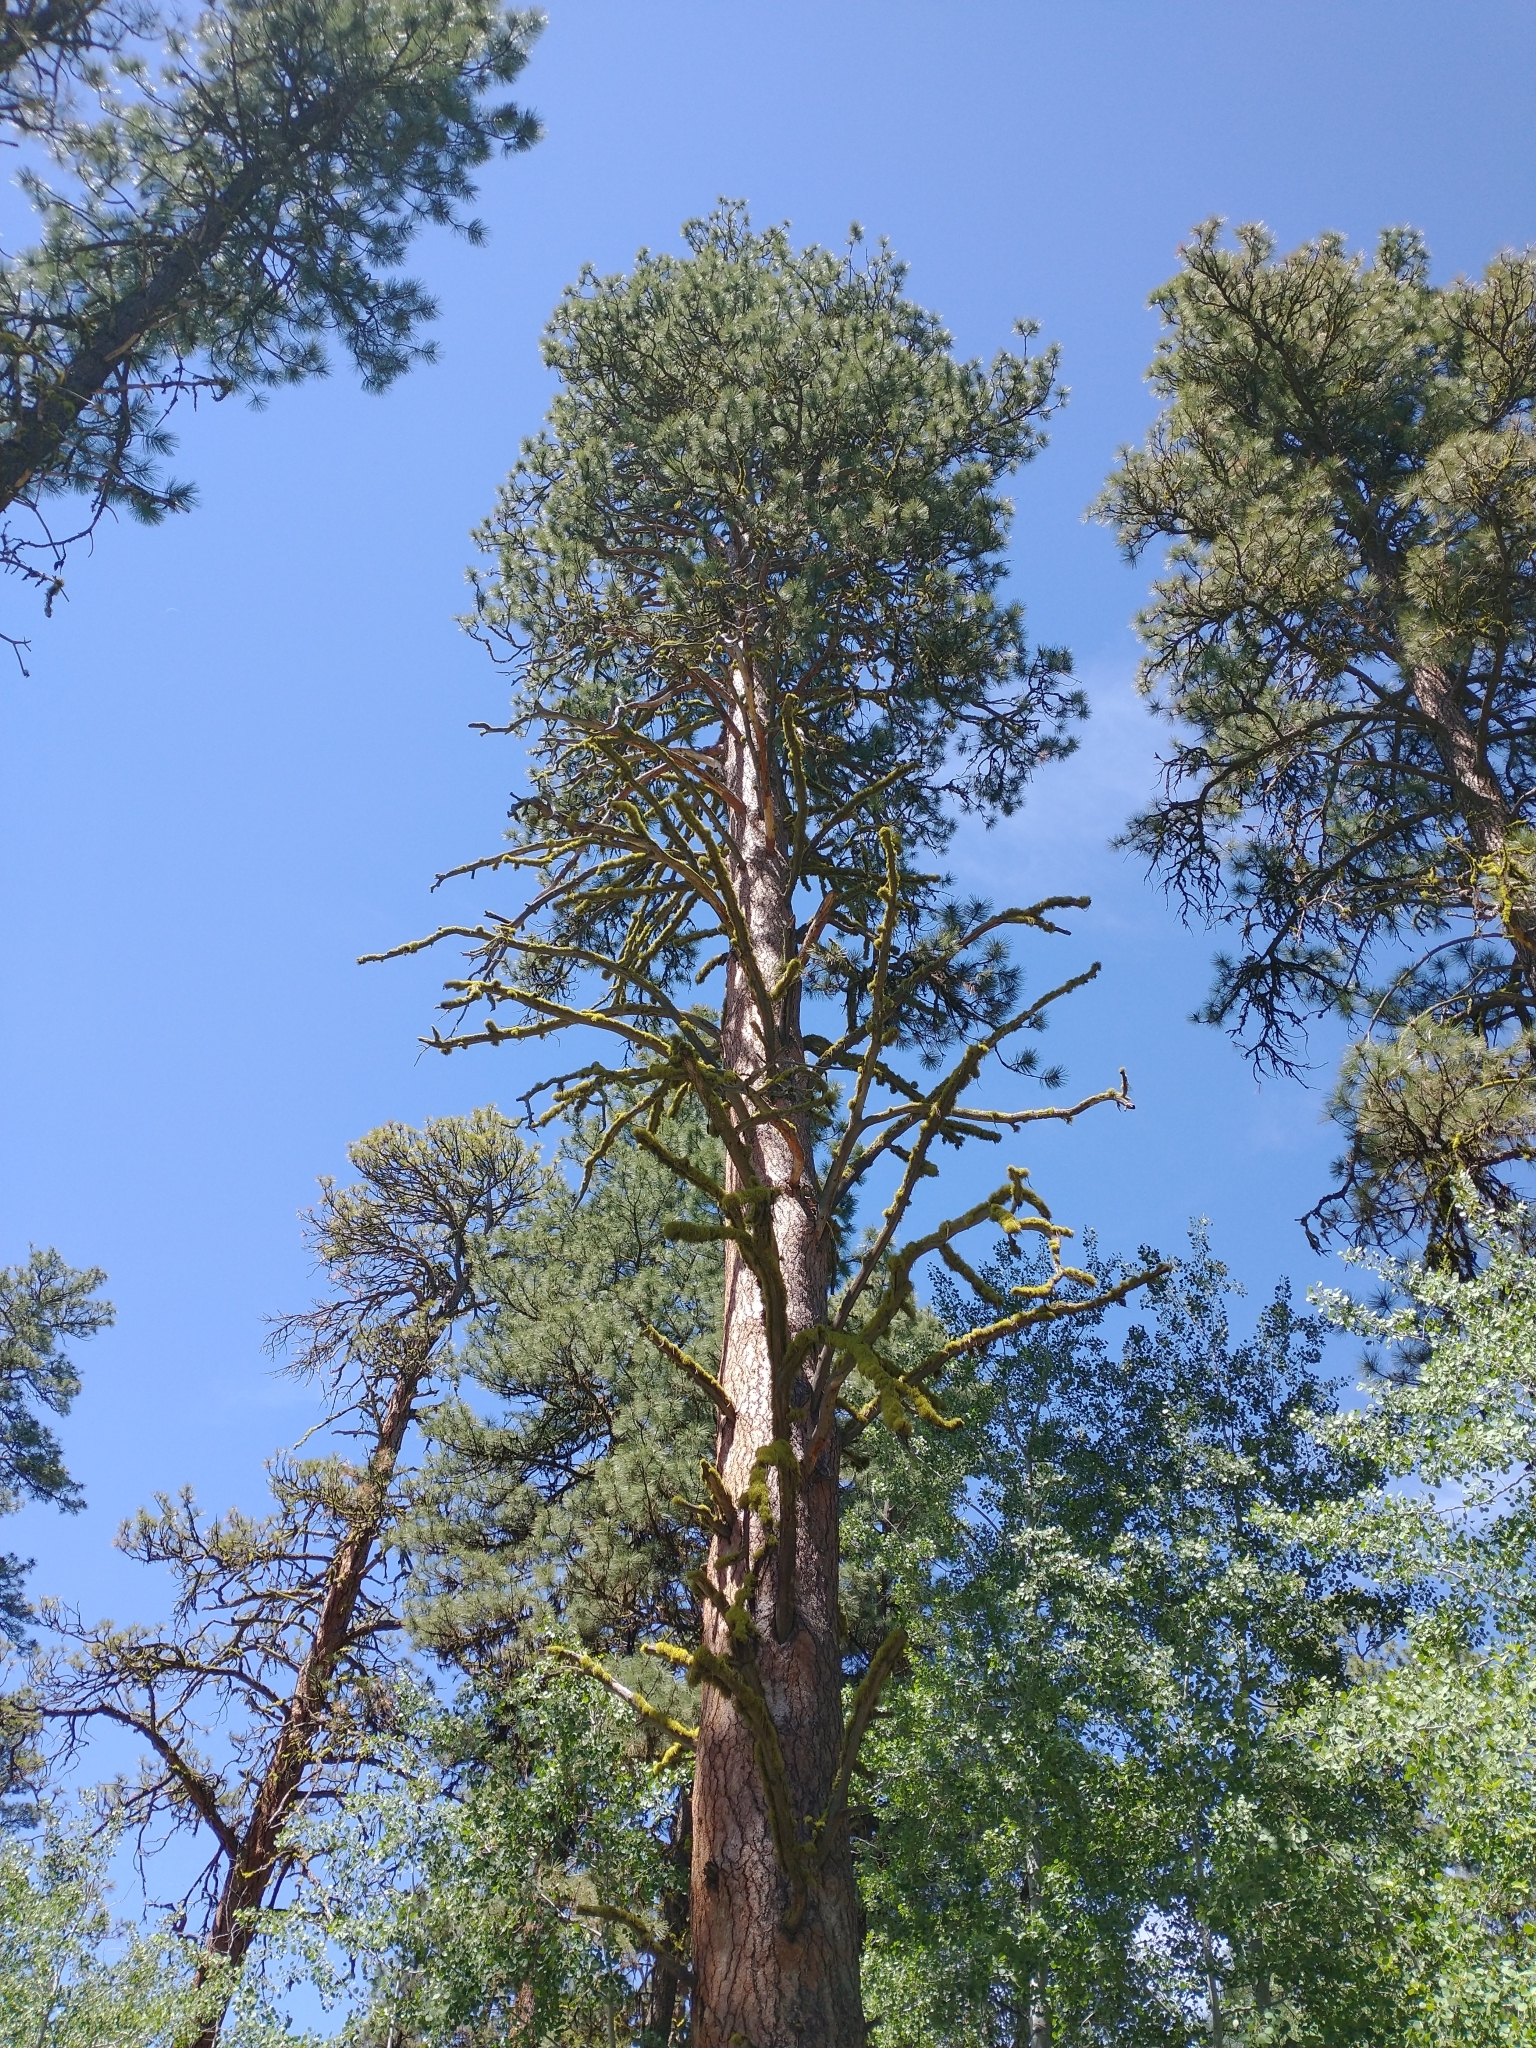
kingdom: Plantae
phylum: Tracheophyta
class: Pinopsida
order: Pinales
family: Pinaceae
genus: Pinus
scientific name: Pinus ponderosa
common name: Western yellow-pine
